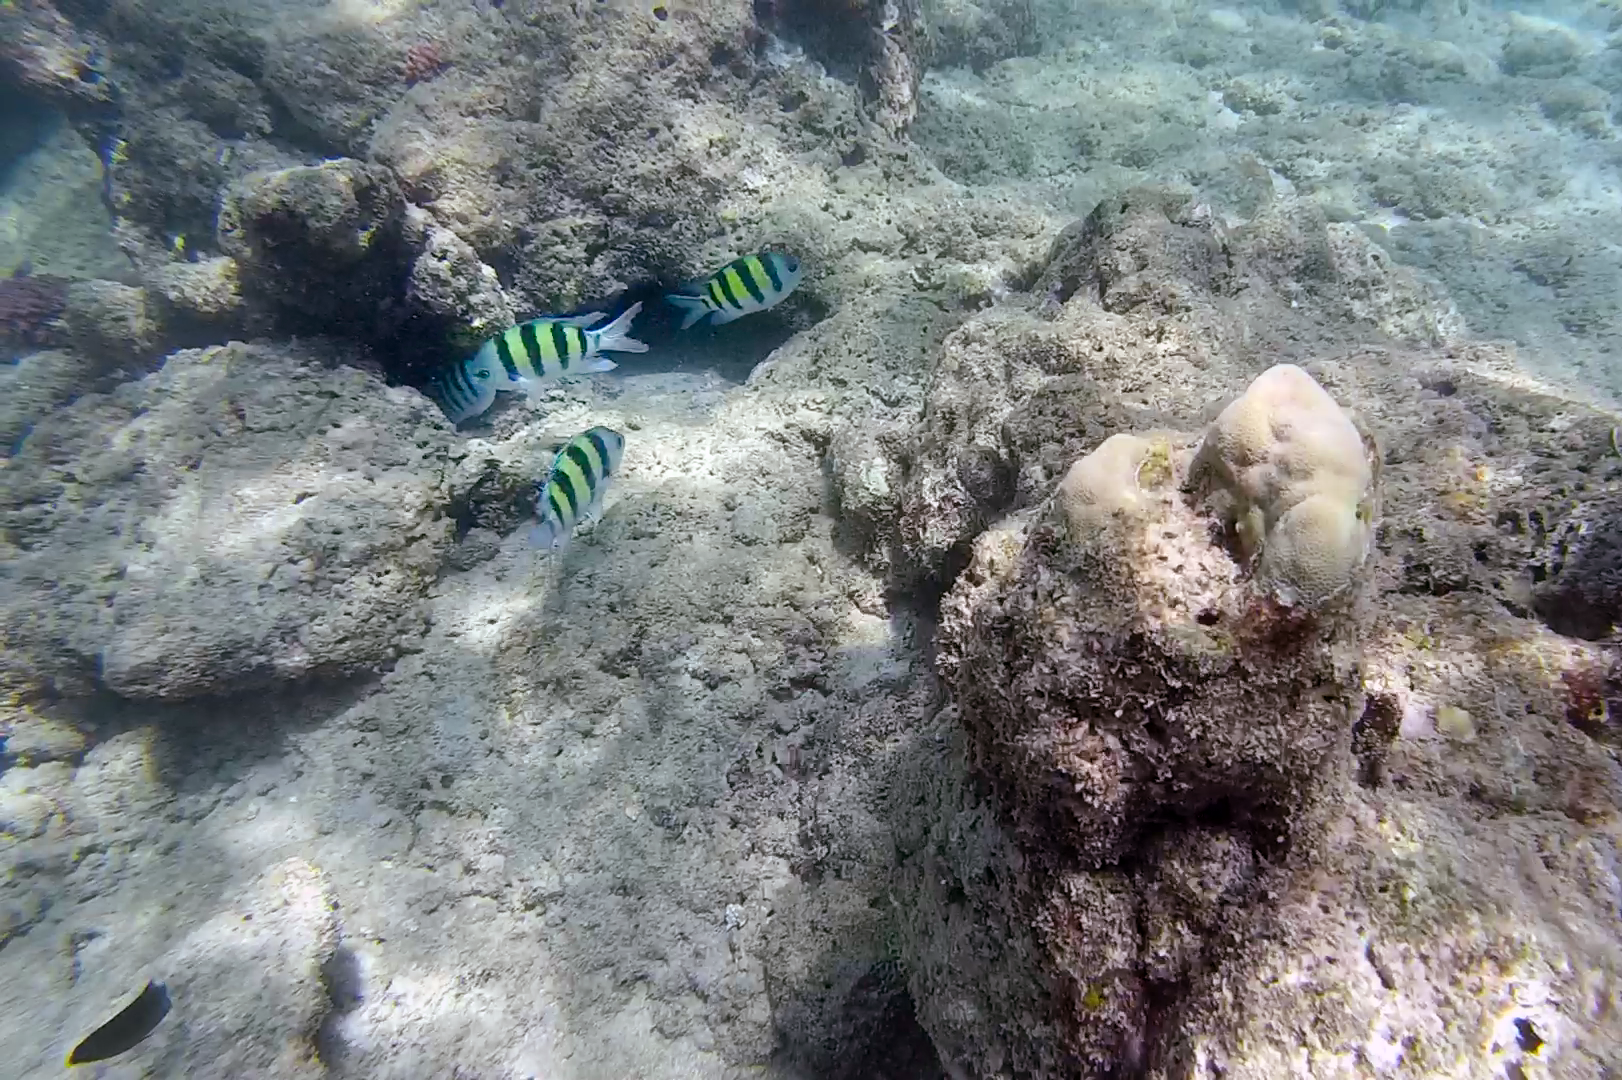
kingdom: Animalia
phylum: Chordata
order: Perciformes
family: Pomacentridae
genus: Abudefduf
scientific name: Abudefduf vaigiensis
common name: Indo-pacific sergeant
